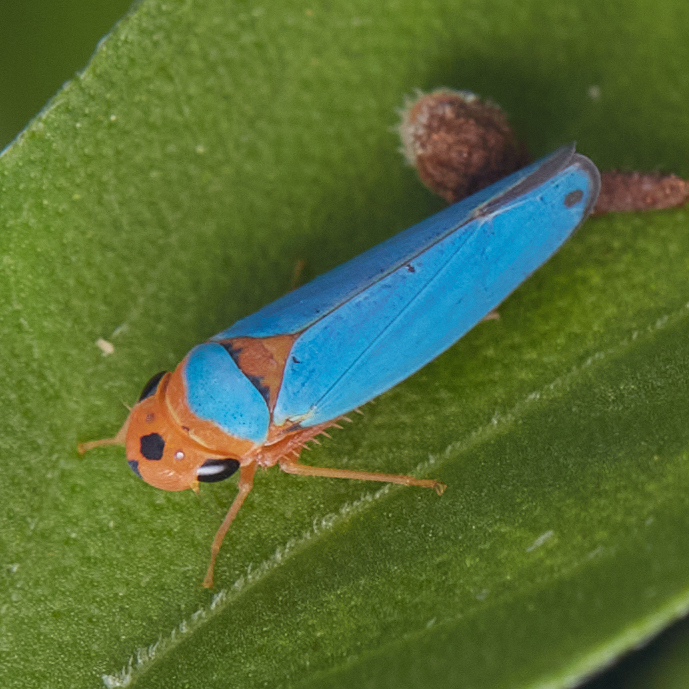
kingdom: Animalia
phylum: Arthropoda
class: Insecta
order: Hemiptera
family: Cicadellidae
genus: Macunolla
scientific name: Macunolla ventralis
